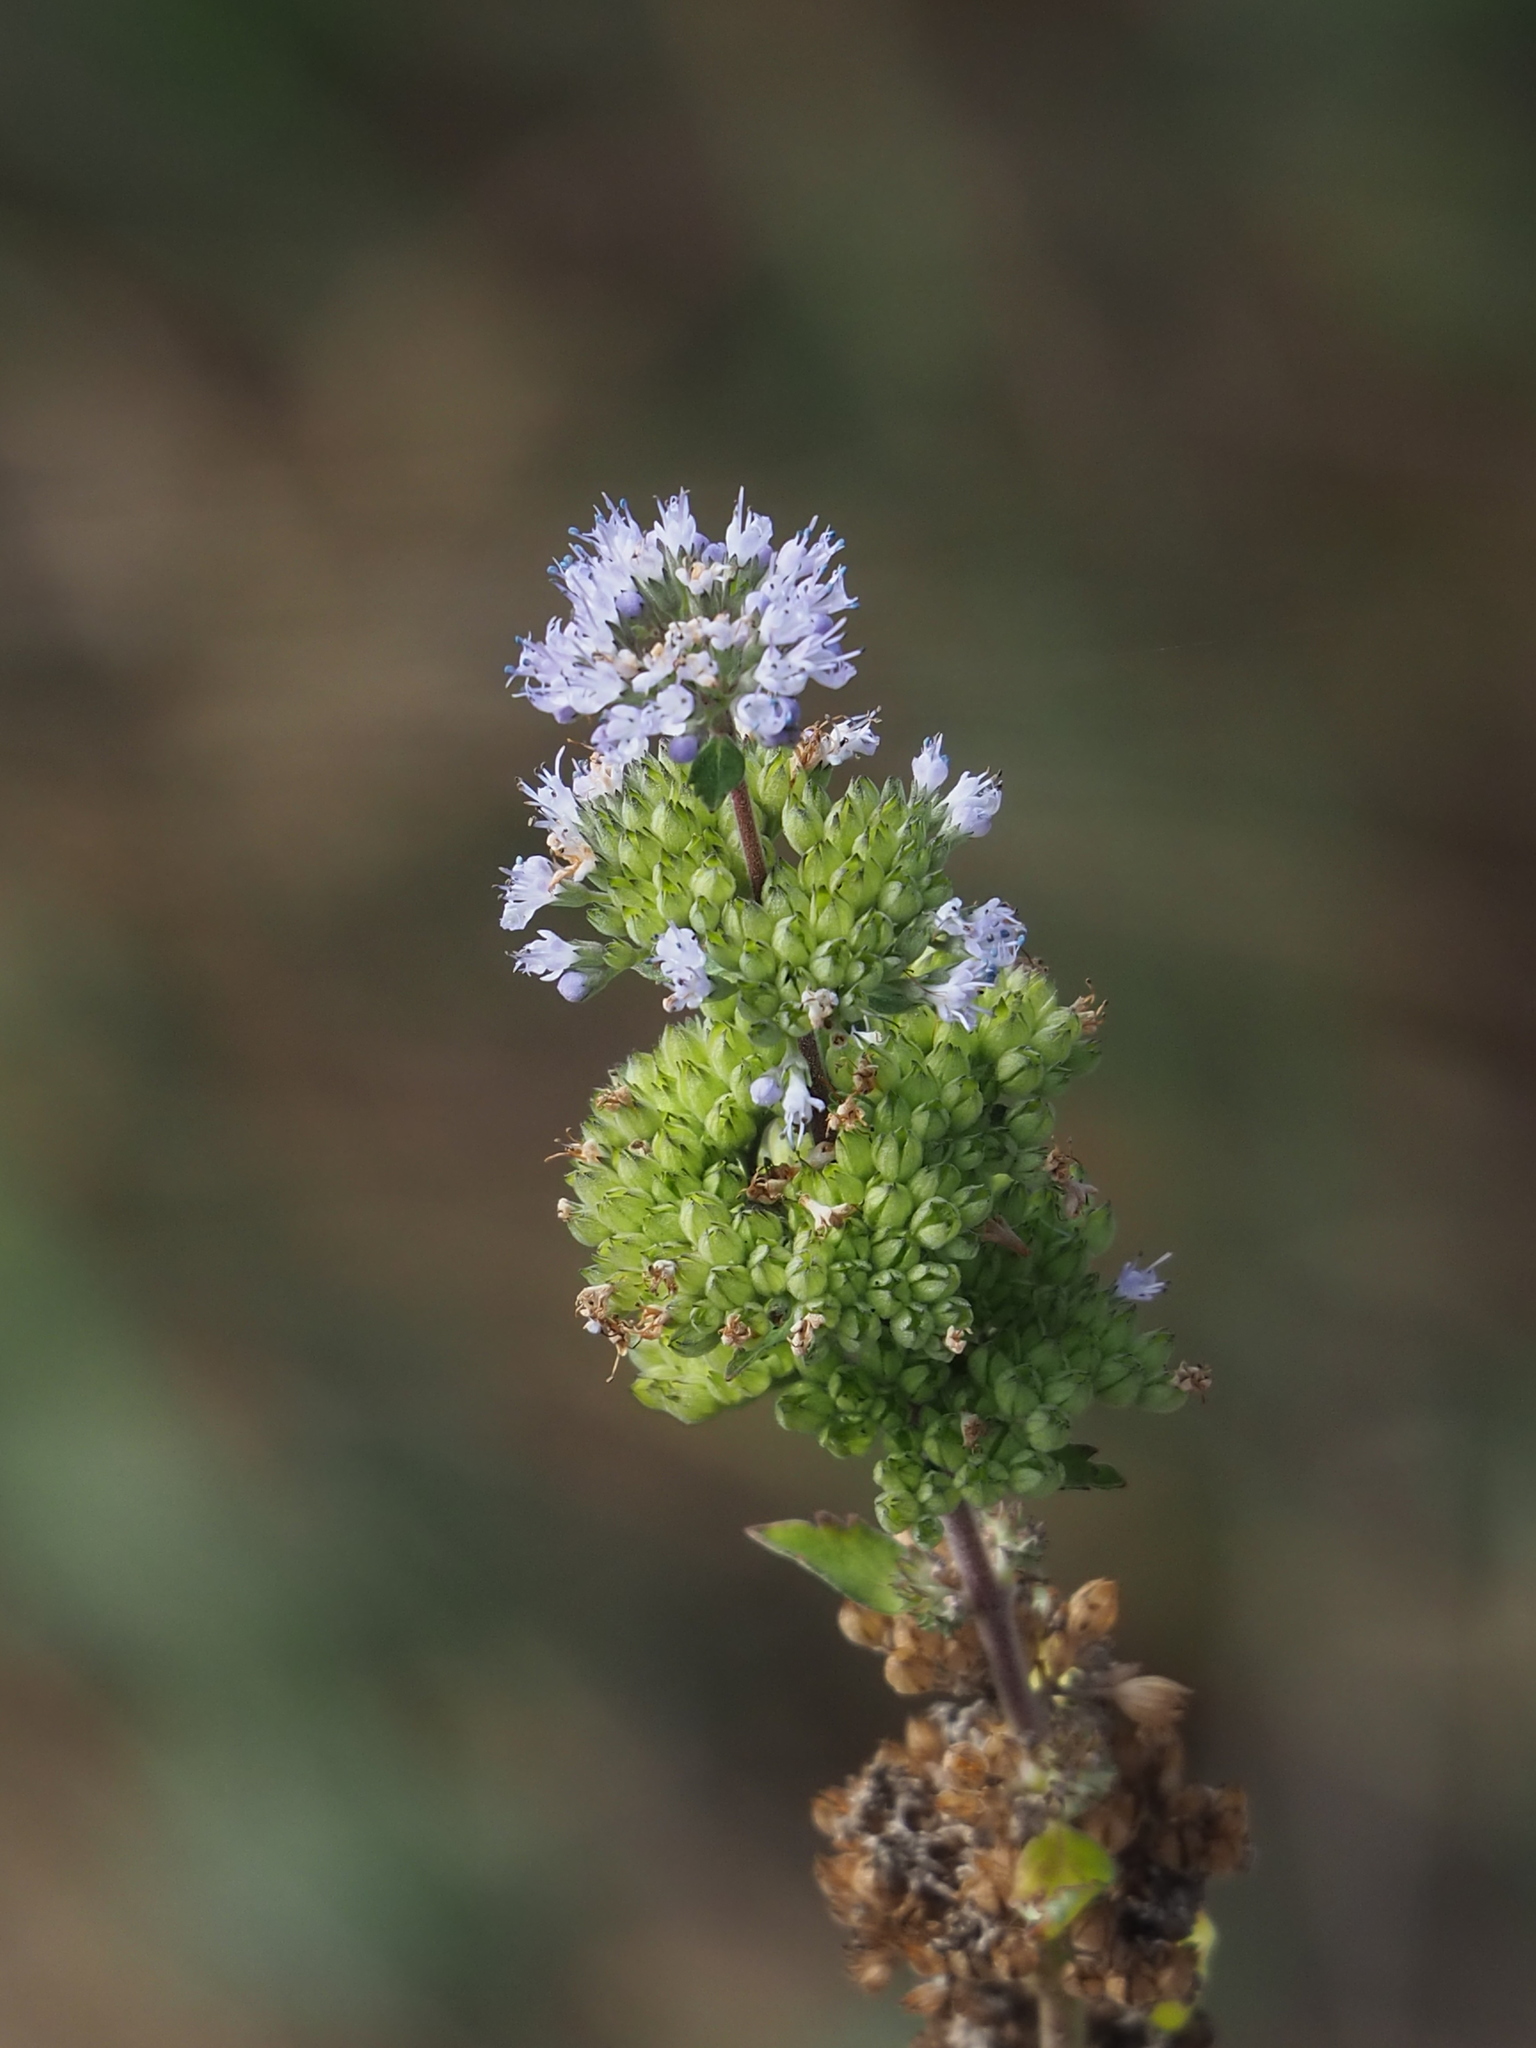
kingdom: Plantae
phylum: Tracheophyta
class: Magnoliopsida
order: Lamiales
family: Lamiaceae
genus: Caryopteris
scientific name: Caryopteris incana
